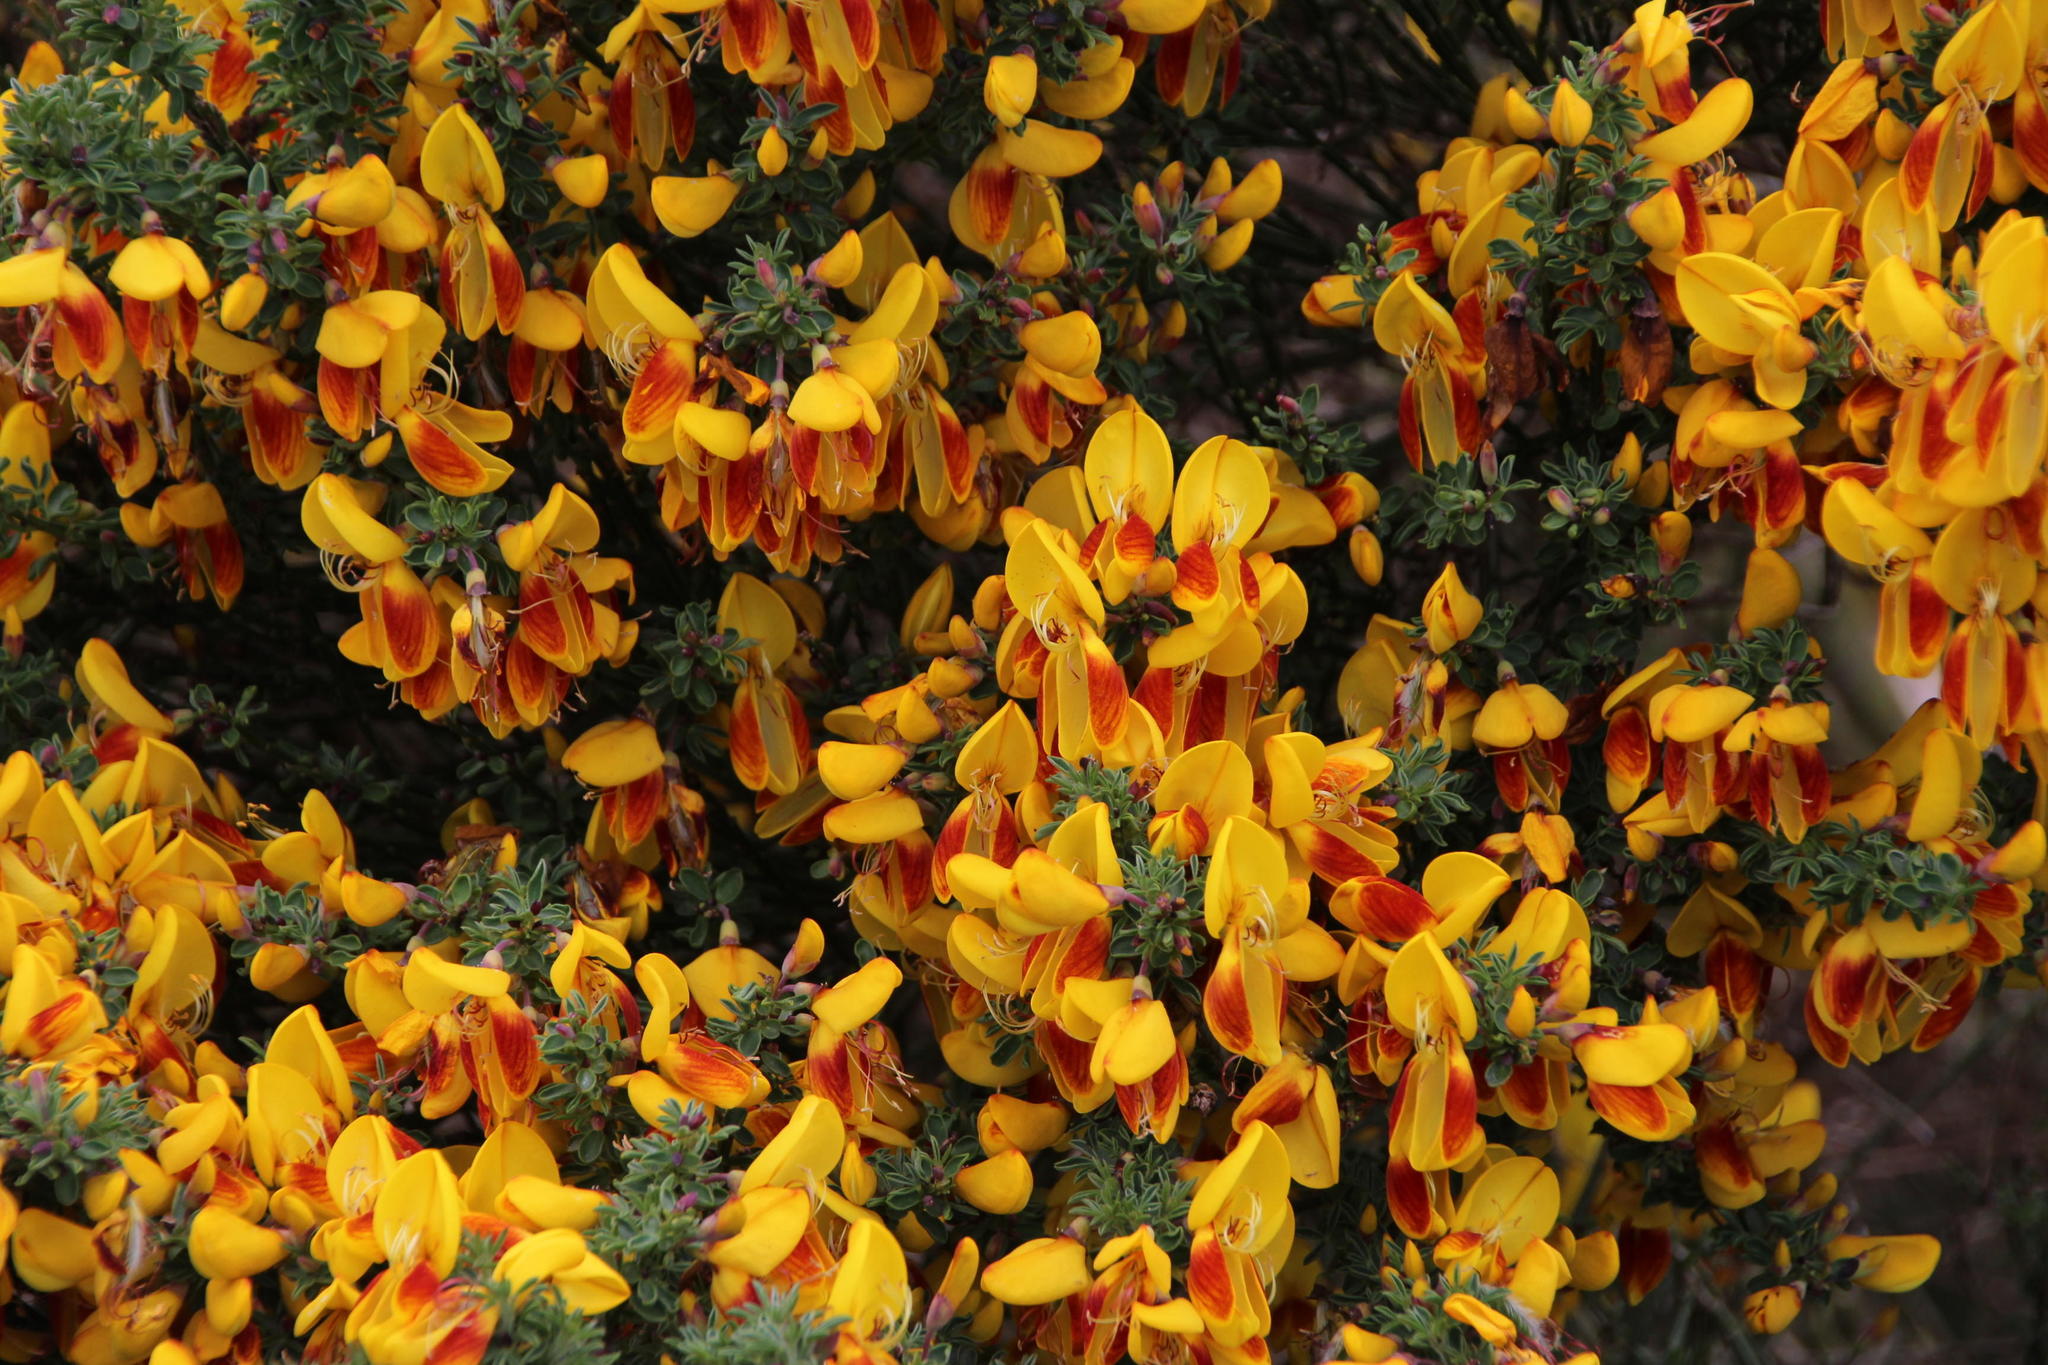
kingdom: Plantae
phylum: Tracheophyta
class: Magnoliopsida
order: Fabales
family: Fabaceae
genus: Cytisus
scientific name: Cytisus scoparius
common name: Scotch broom
